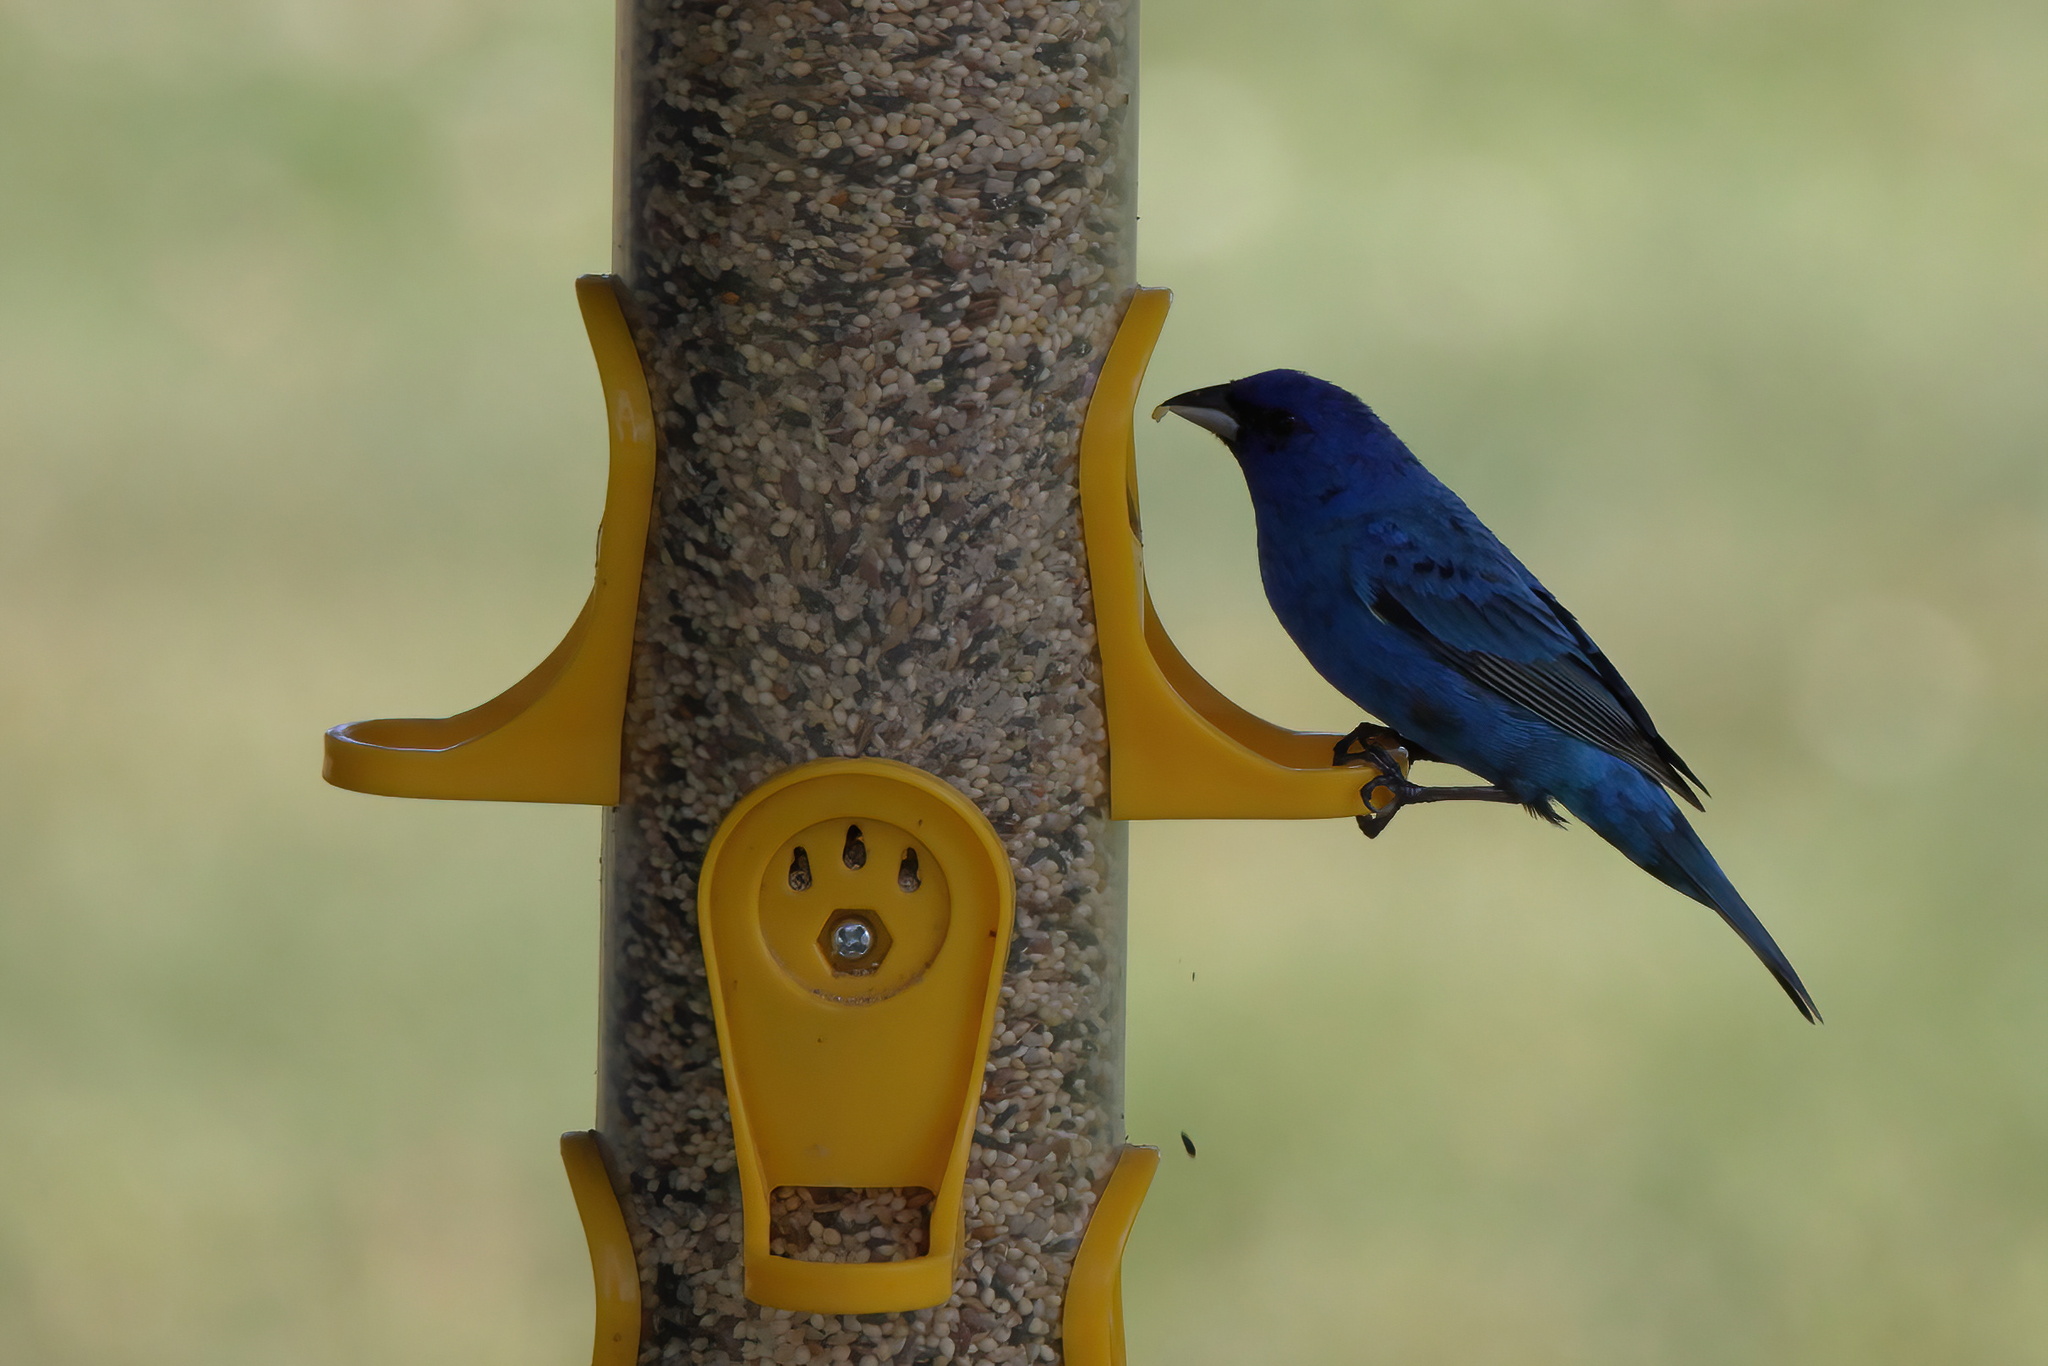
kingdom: Animalia
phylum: Chordata
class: Aves
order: Passeriformes
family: Cardinalidae
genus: Passerina
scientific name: Passerina cyanea
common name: Indigo bunting
